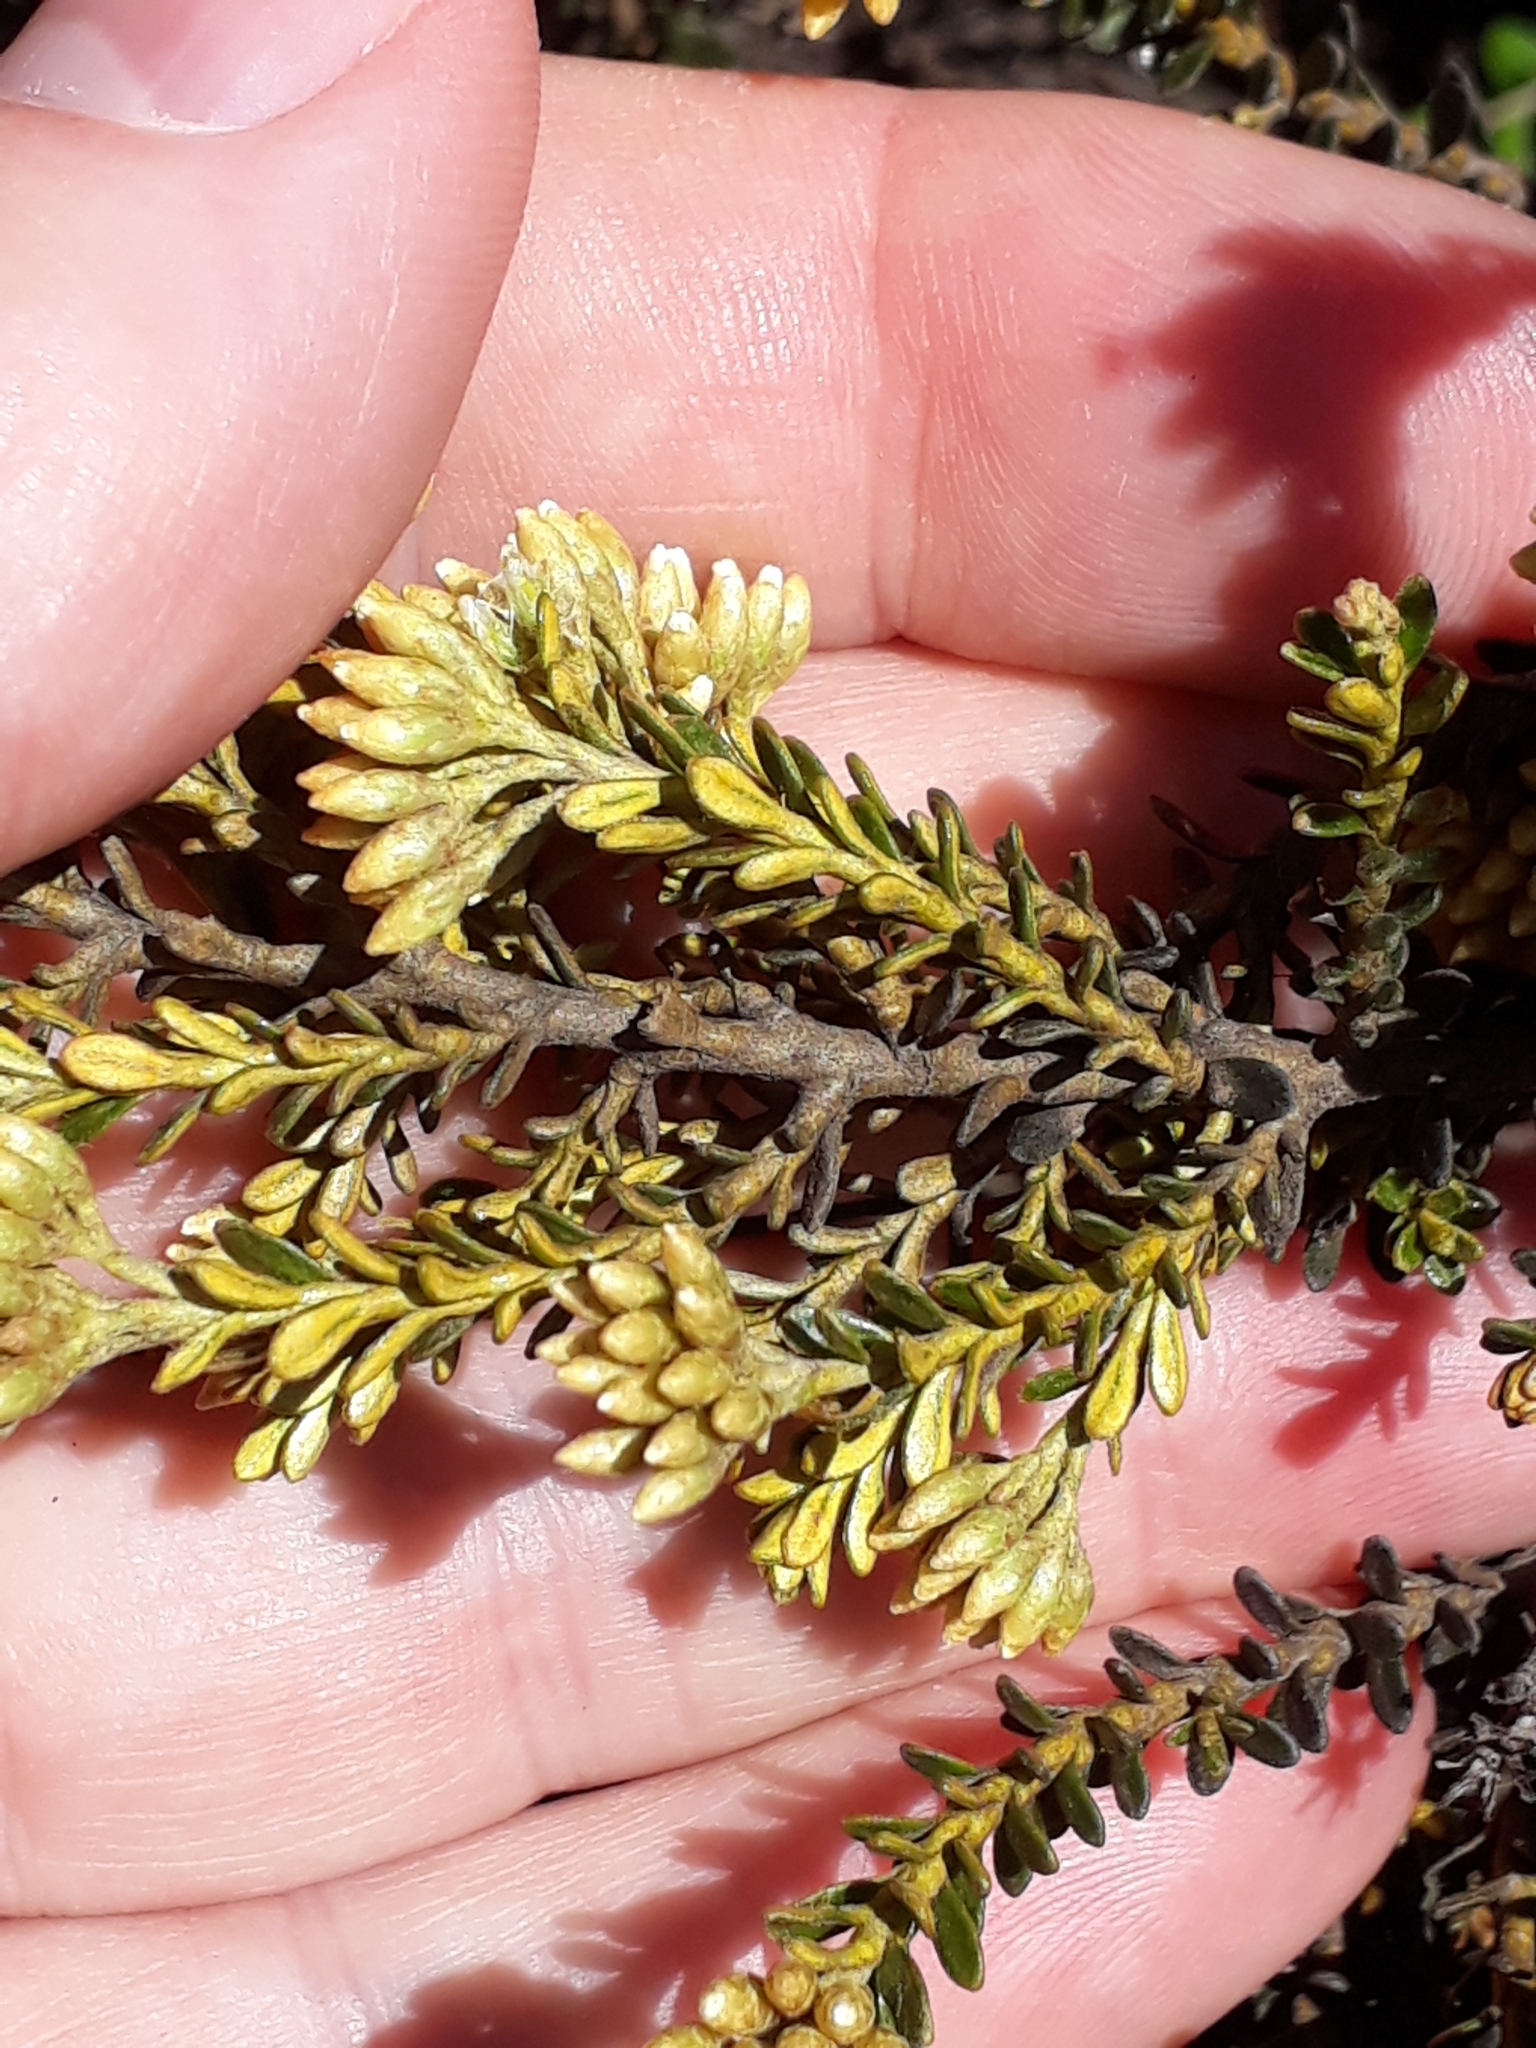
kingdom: Plantae
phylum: Tracheophyta
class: Magnoliopsida
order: Asterales
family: Asteraceae
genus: Ozothamnus
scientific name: Ozothamnus leptophyllus
